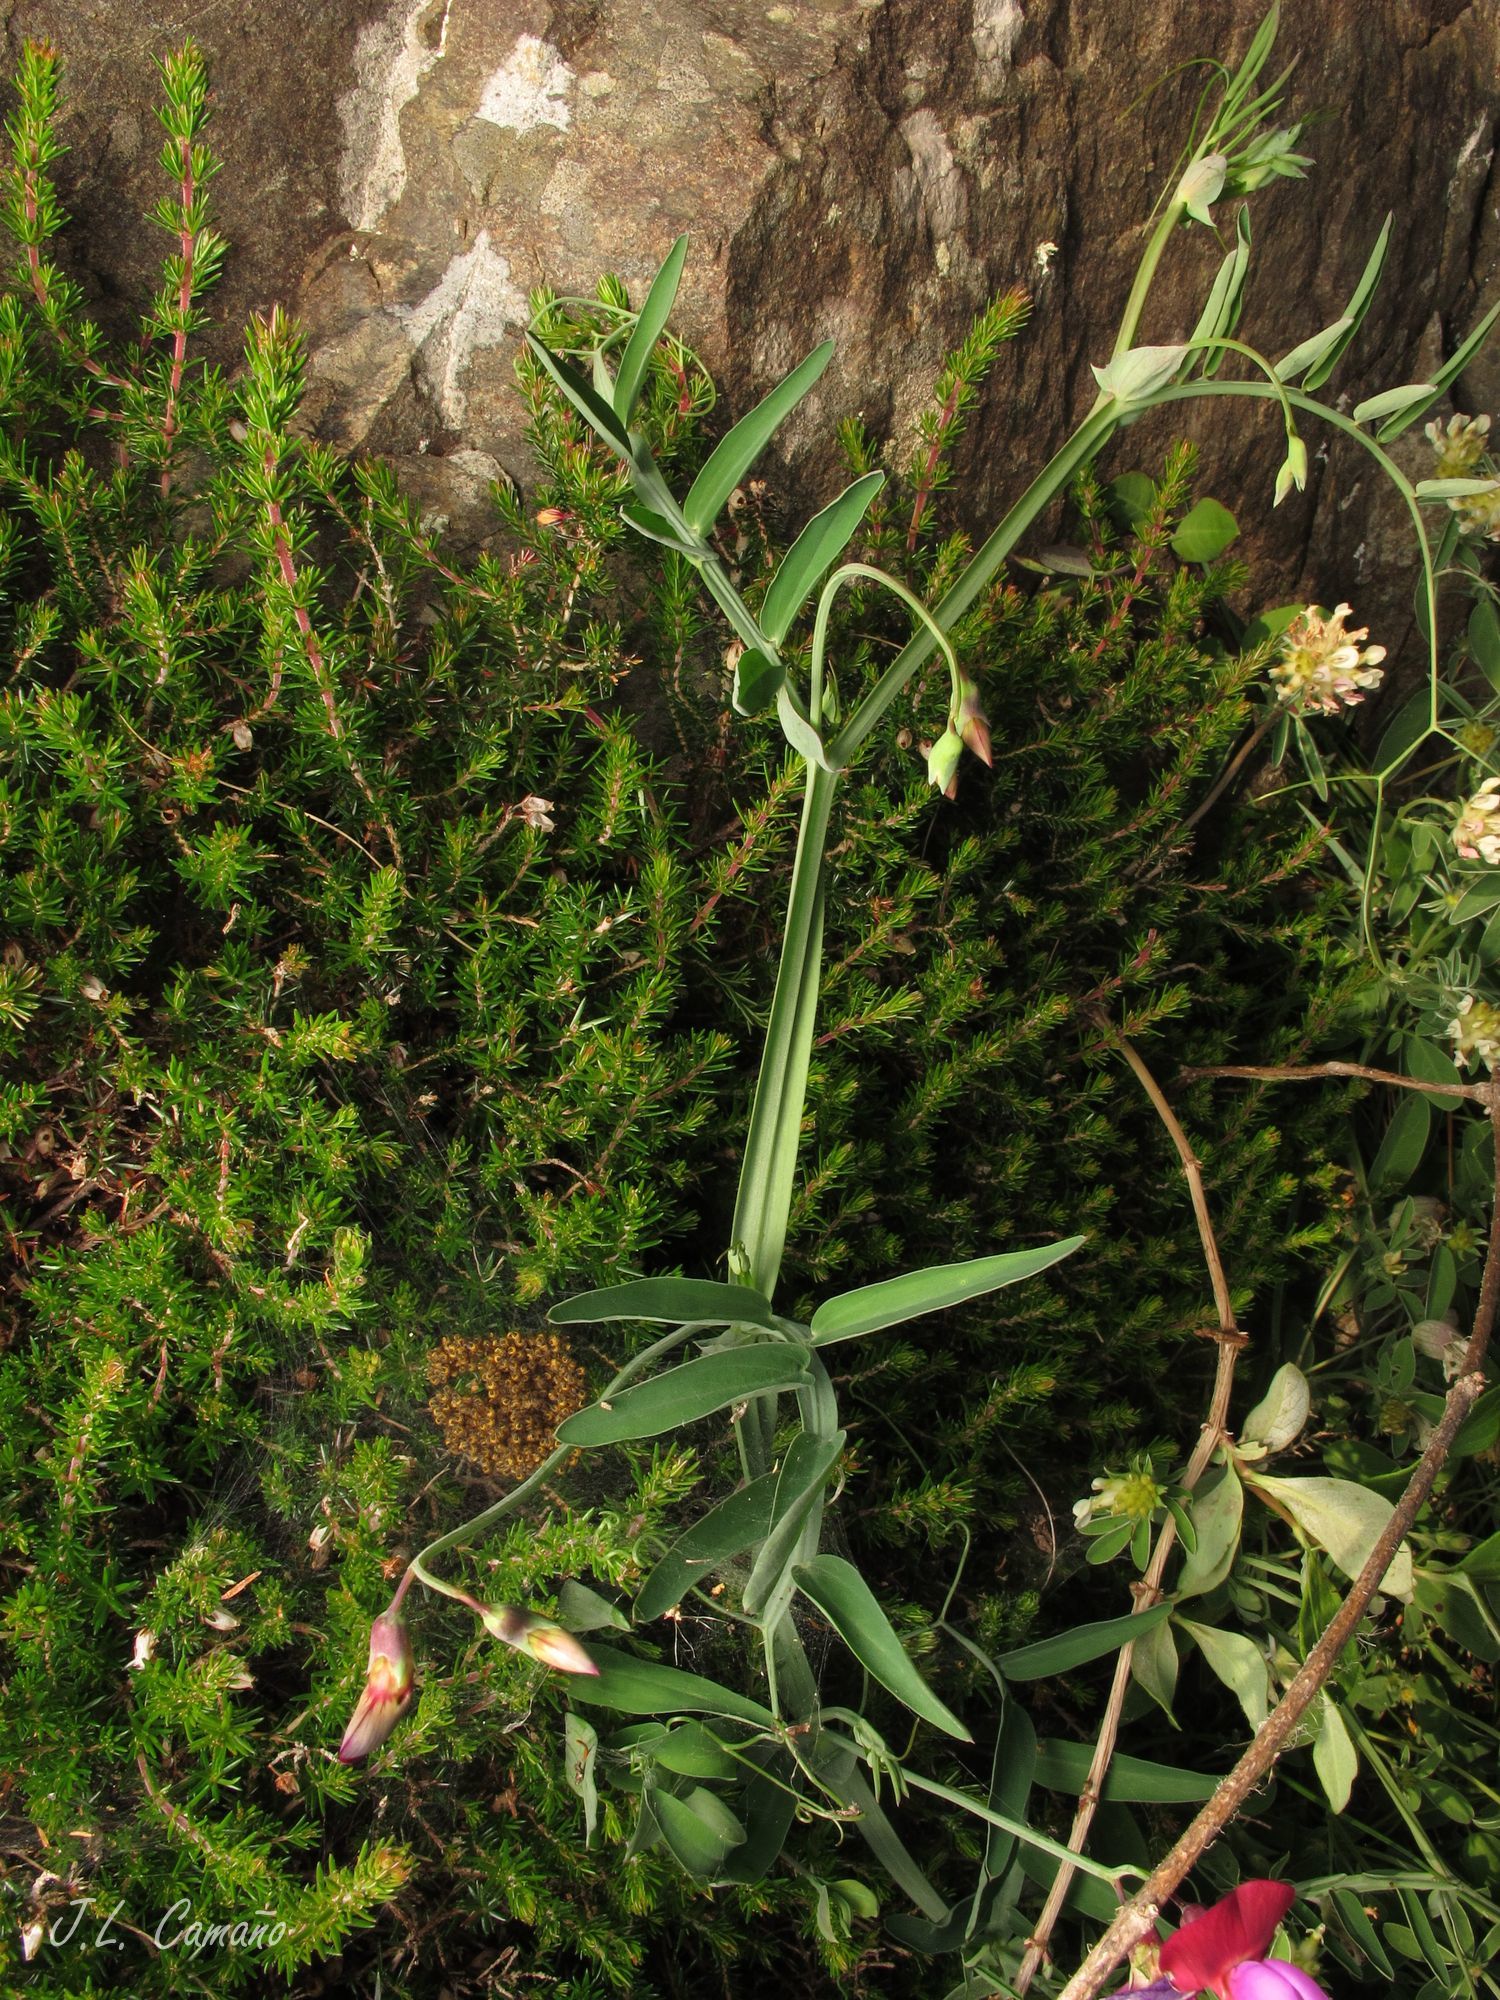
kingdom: Plantae
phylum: Tracheophyta
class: Magnoliopsida
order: Fabales
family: Fabaceae
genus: Lathyrus
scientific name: Lathyrus clymenum
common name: Spanish vetchling
